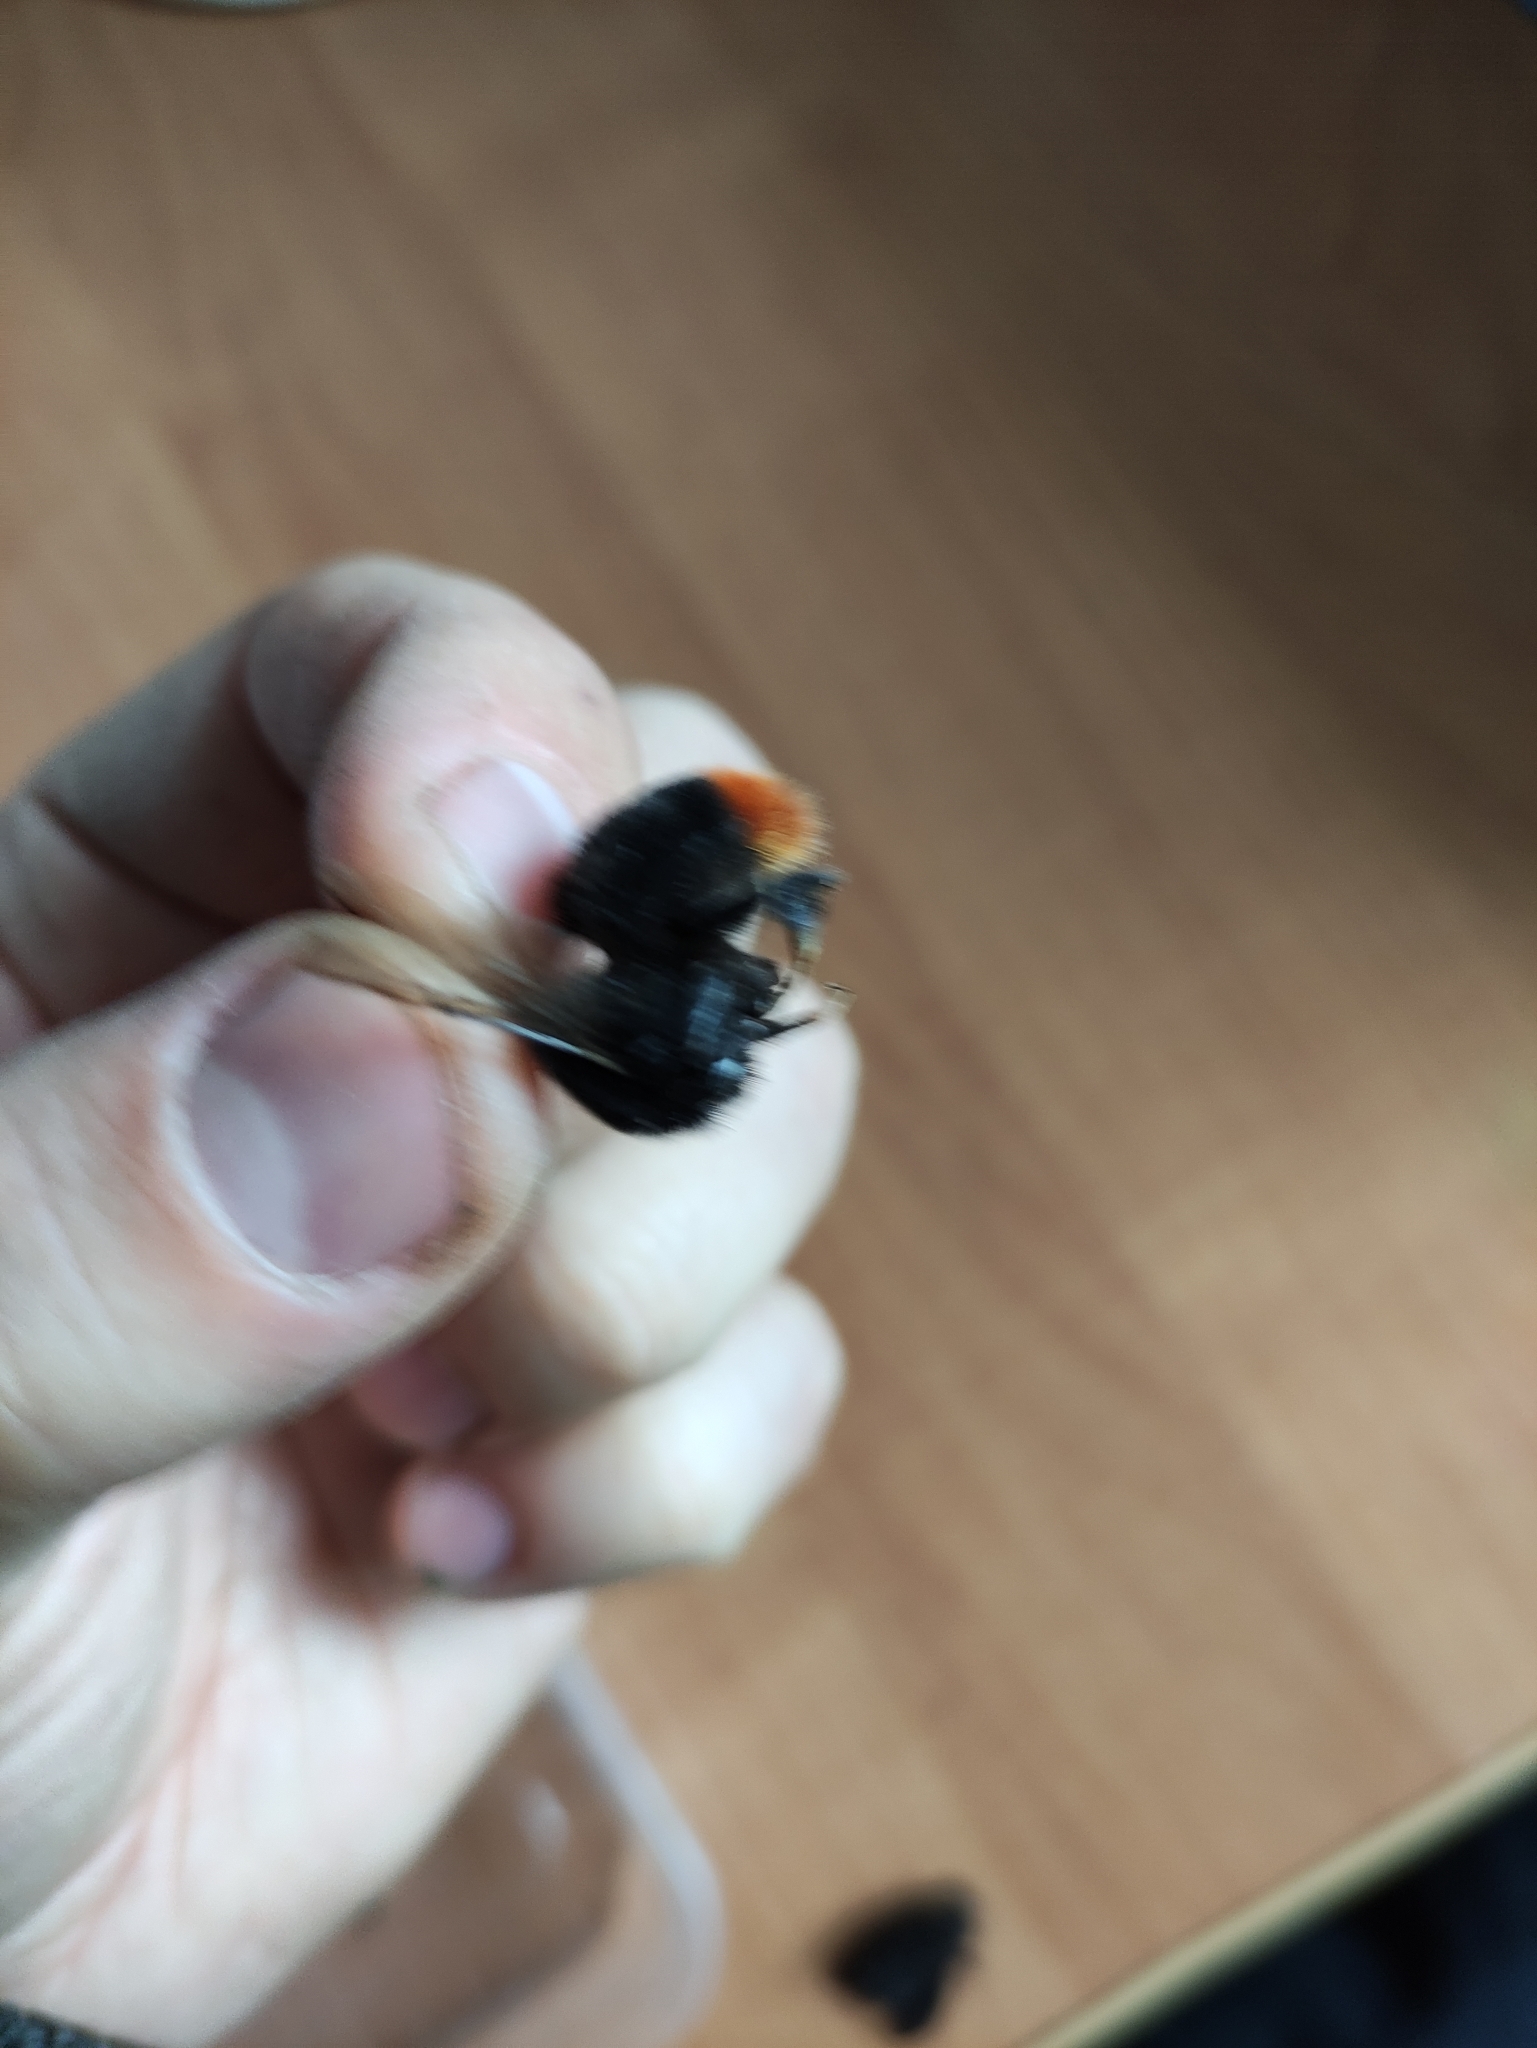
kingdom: Animalia
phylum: Arthropoda
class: Insecta
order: Hymenoptera
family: Apidae
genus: Bombus
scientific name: Bombus lapidarius
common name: Large red-tailed humble-bee
